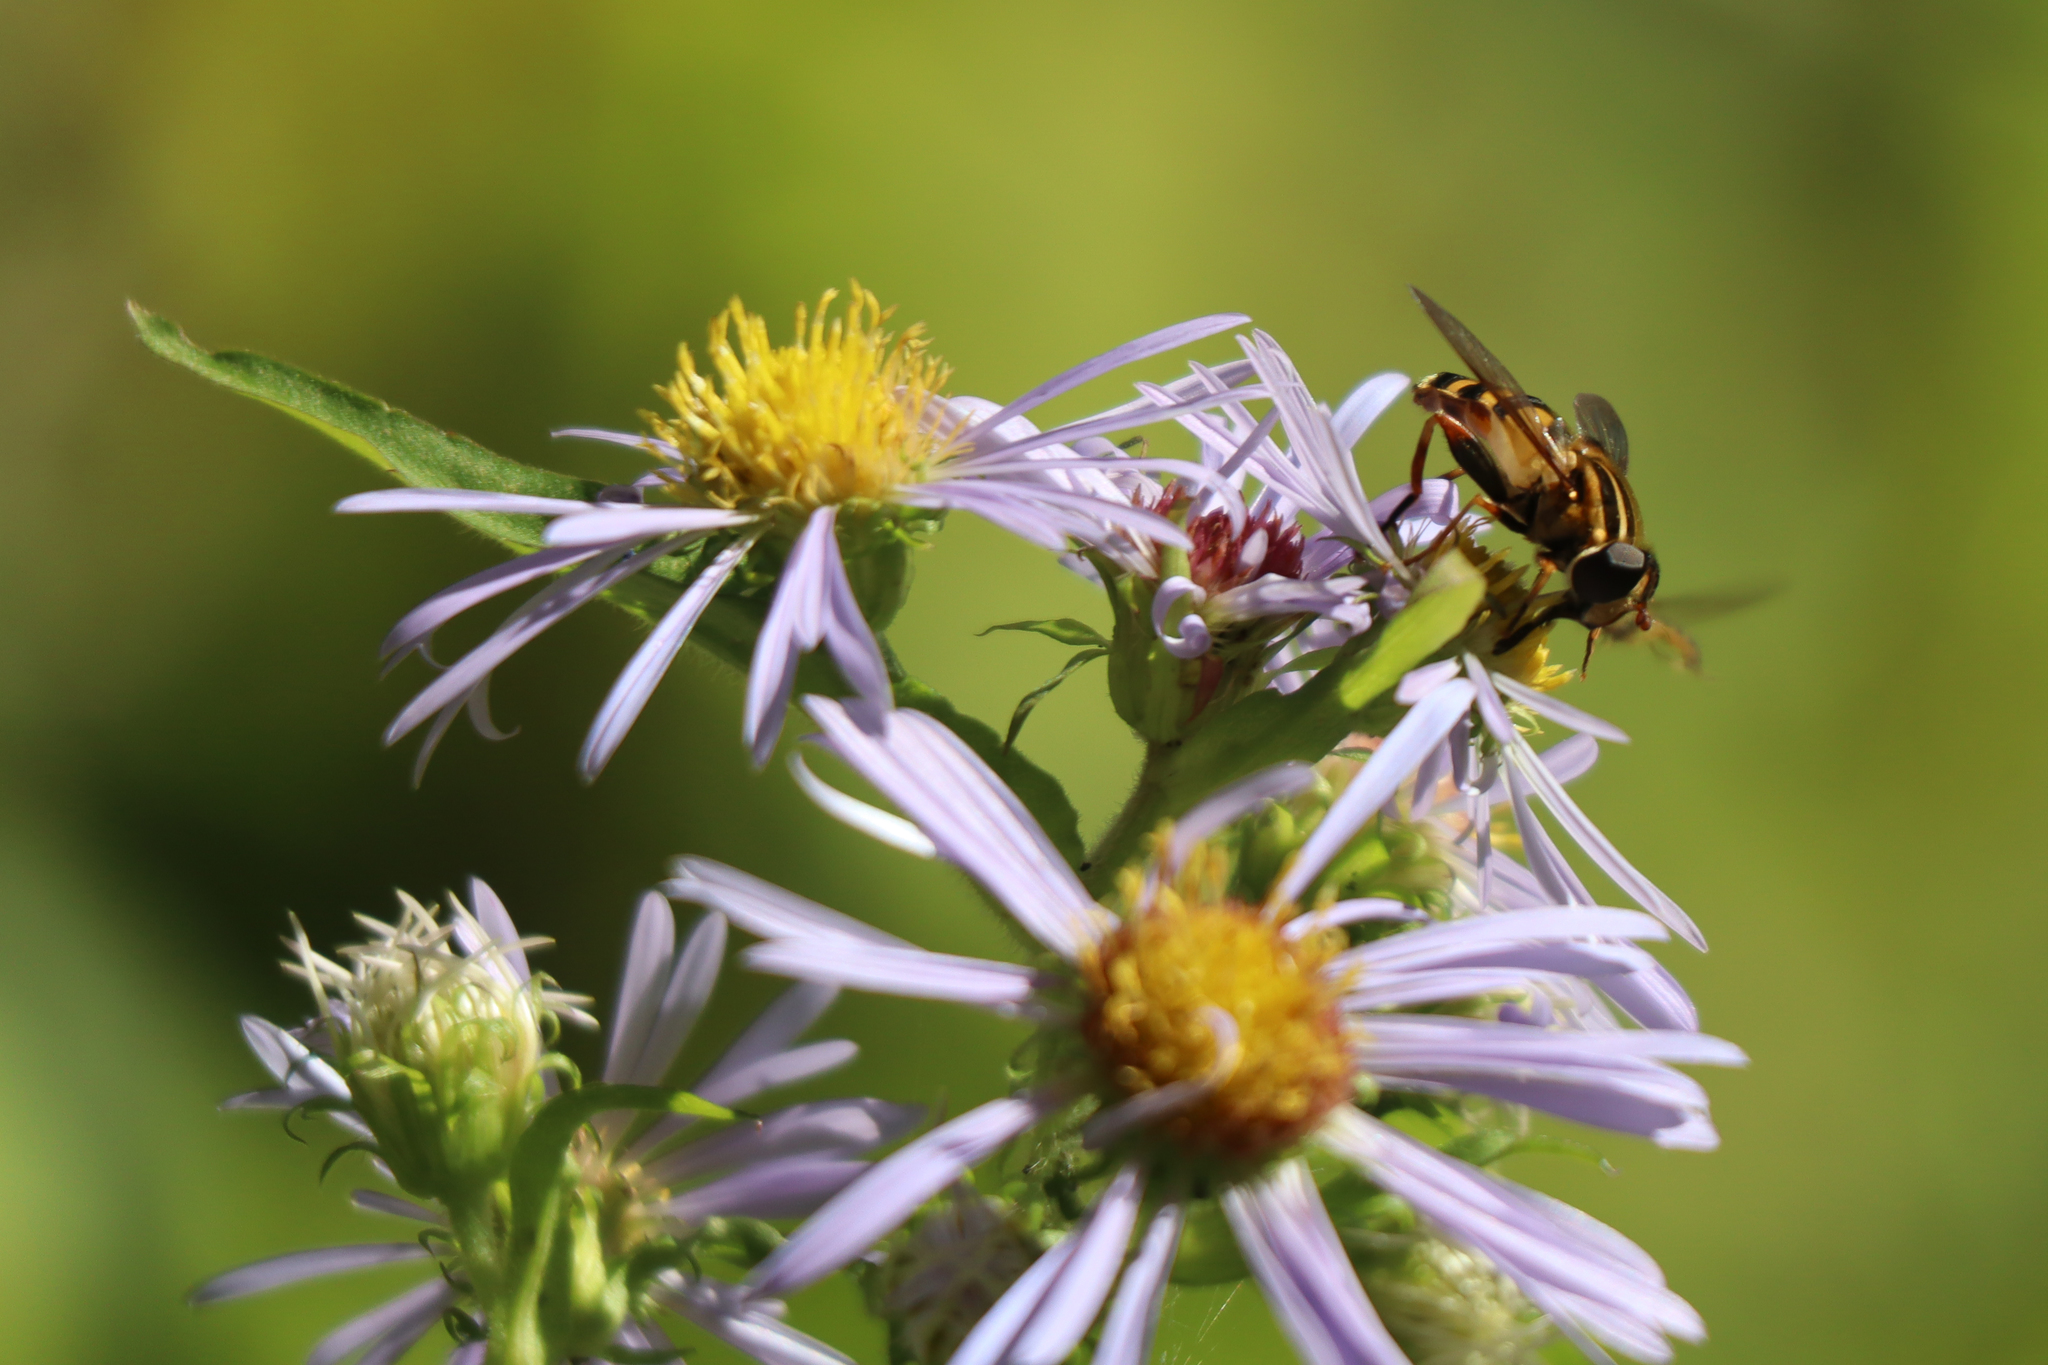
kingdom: Animalia
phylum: Arthropoda
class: Insecta
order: Diptera
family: Syrphidae
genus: Helophilus
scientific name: Helophilus fasciatus
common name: Narrow-headed marsh fly
